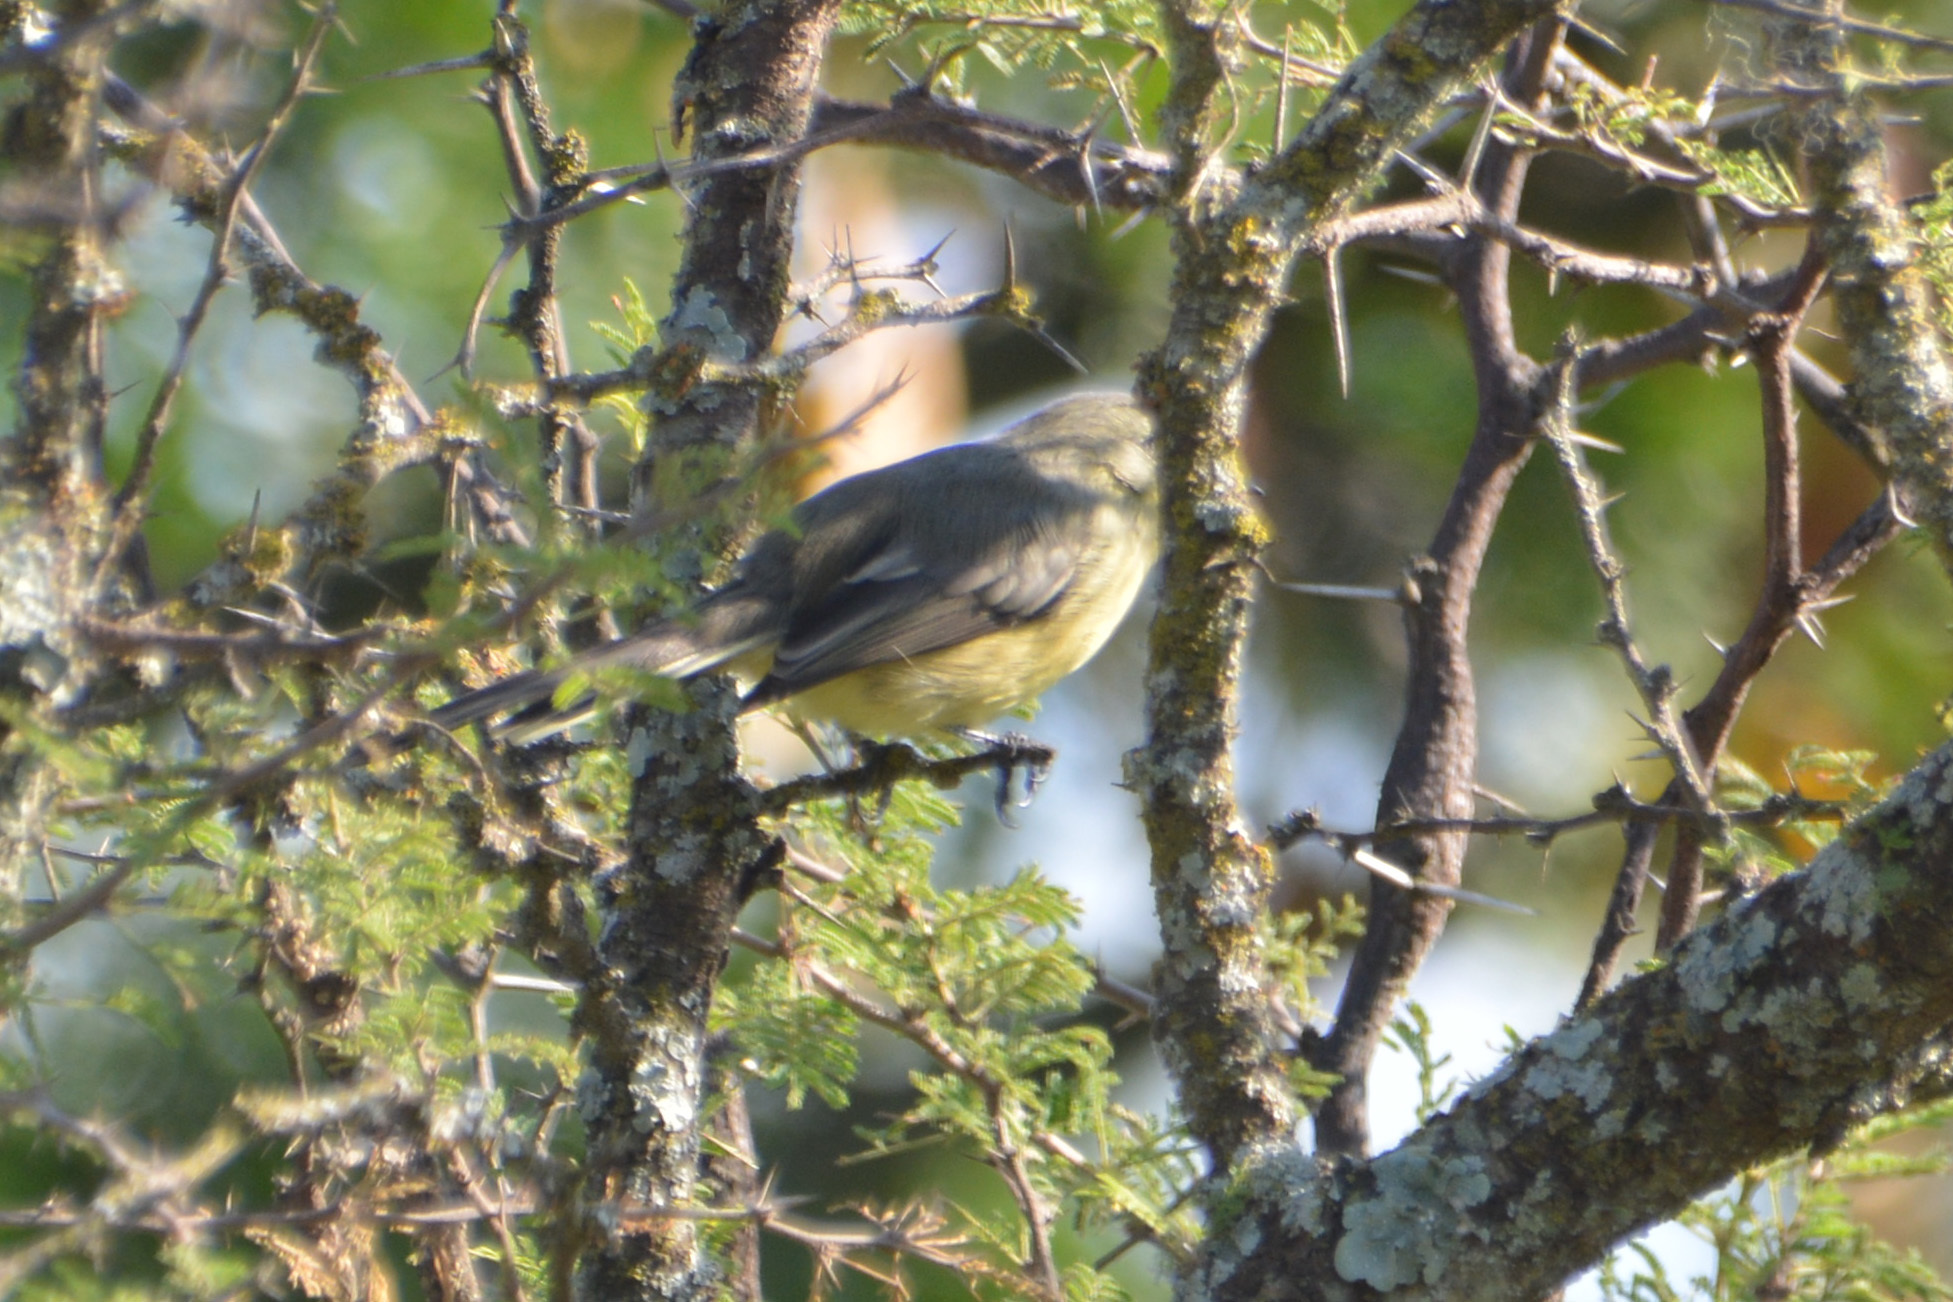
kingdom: Animalia
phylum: Chordata
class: Aves
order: Passeriformes
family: Tyrannidae
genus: Stigmatura
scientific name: Stigmatura budytoides
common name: Greater wagtail-tyrant
